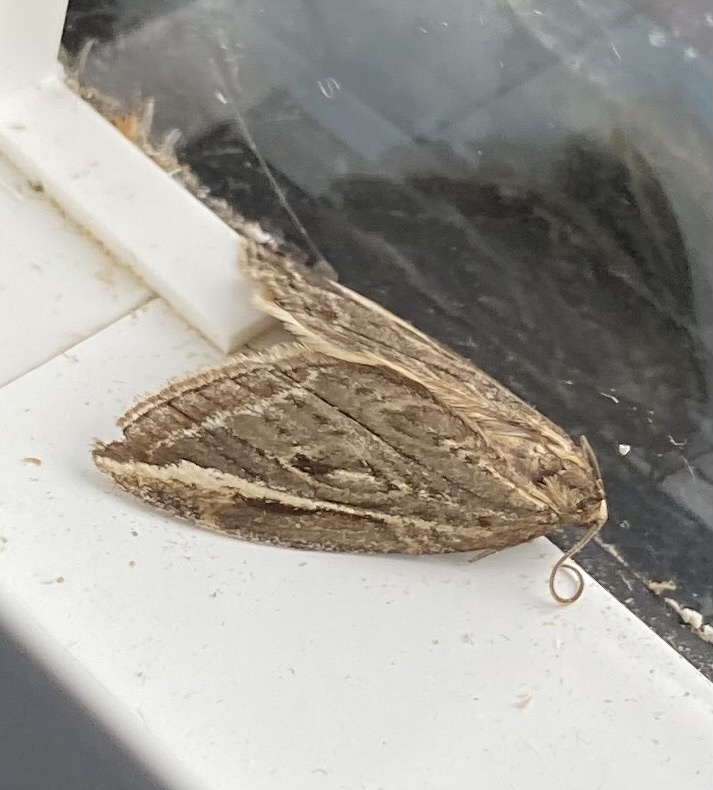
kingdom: Animalia
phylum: Arthropoda
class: Insecta
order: Lepidoptera
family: Geometridae
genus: Chesias
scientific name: Chesias legatella
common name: Streak
